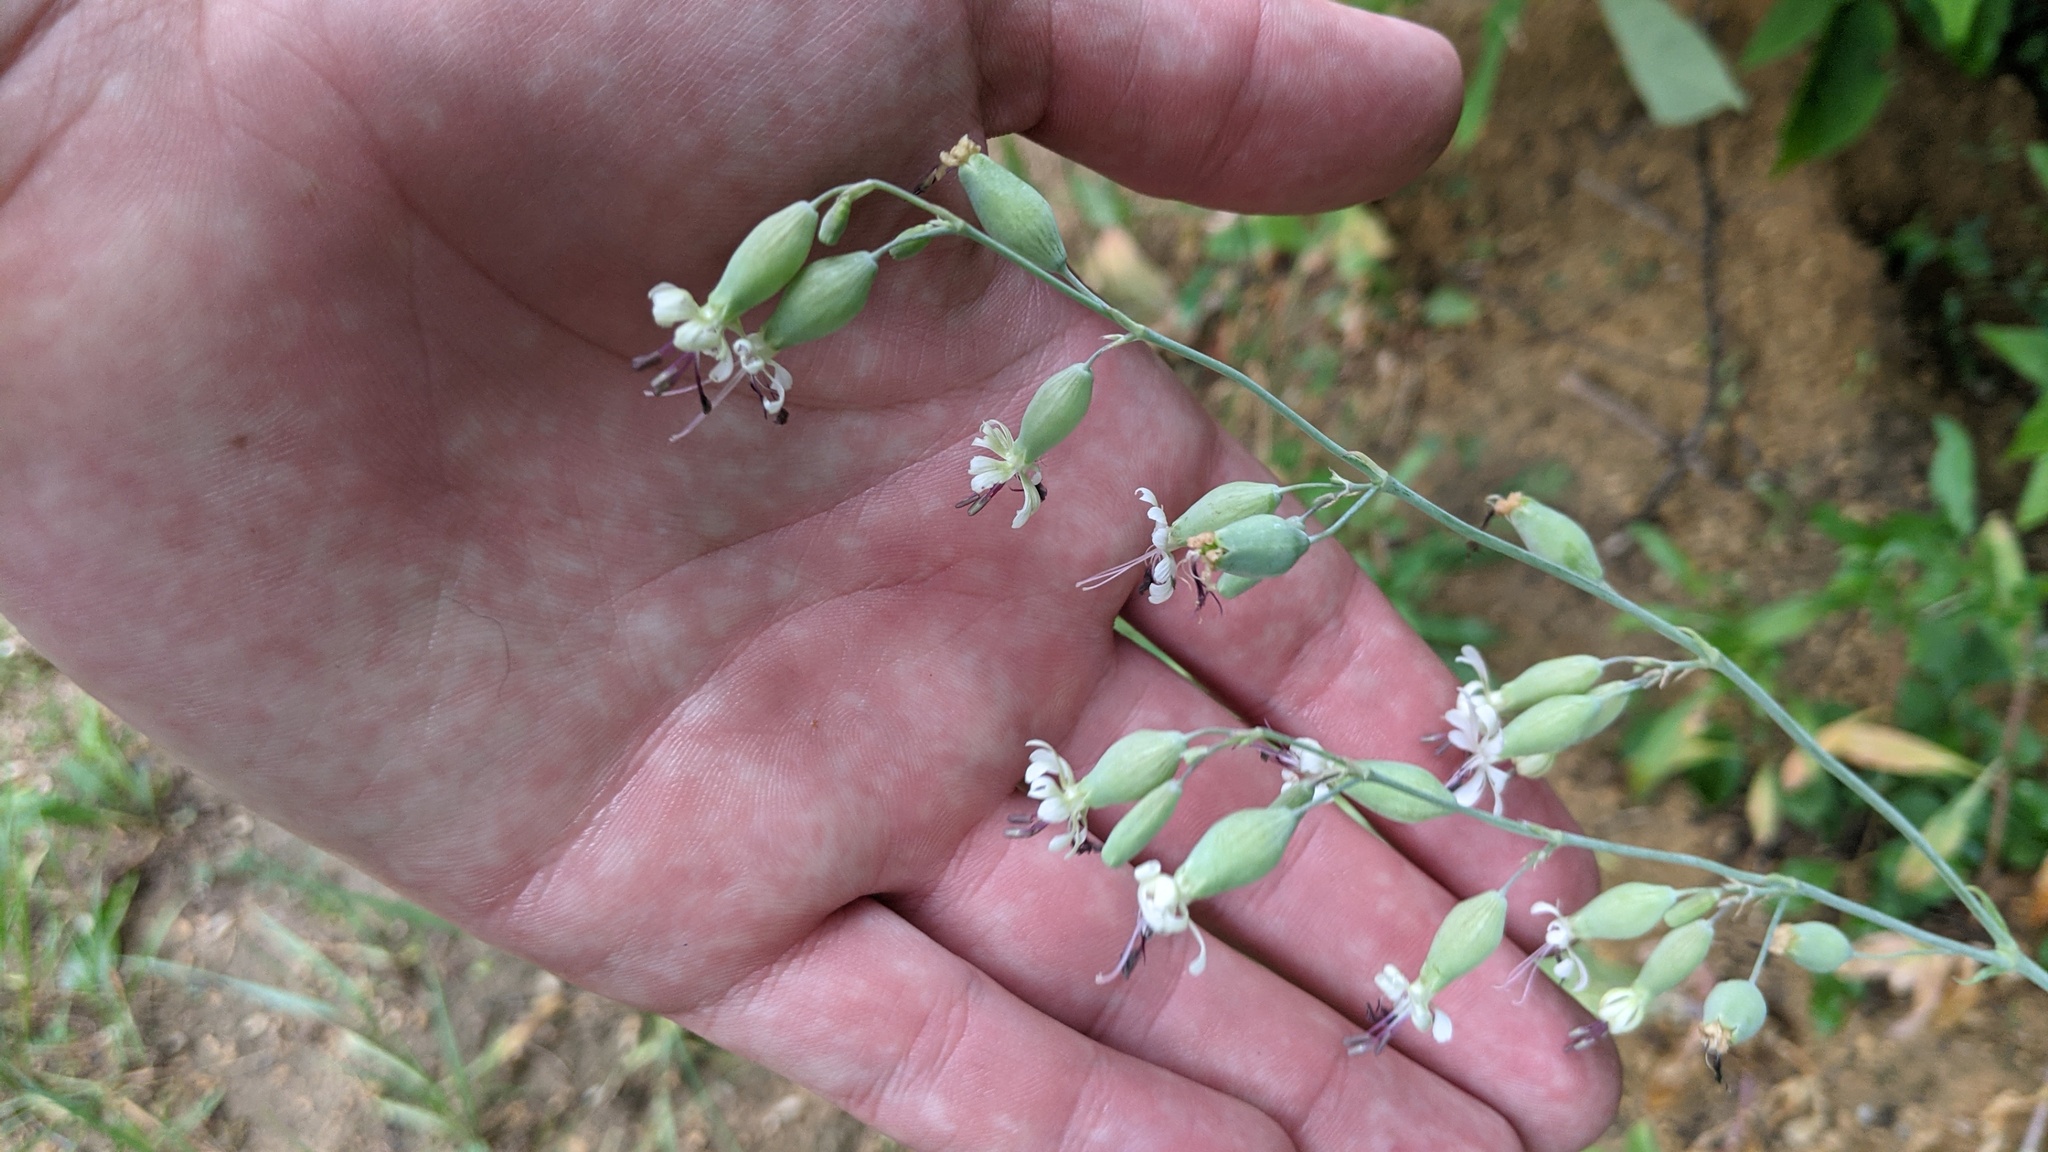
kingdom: Plantae
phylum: Tracheophyta
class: Magnoliopsida
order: Caryophyllales
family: Caryophyllaceae
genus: Silene
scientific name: Silene csereii
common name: Balkan catchfly
